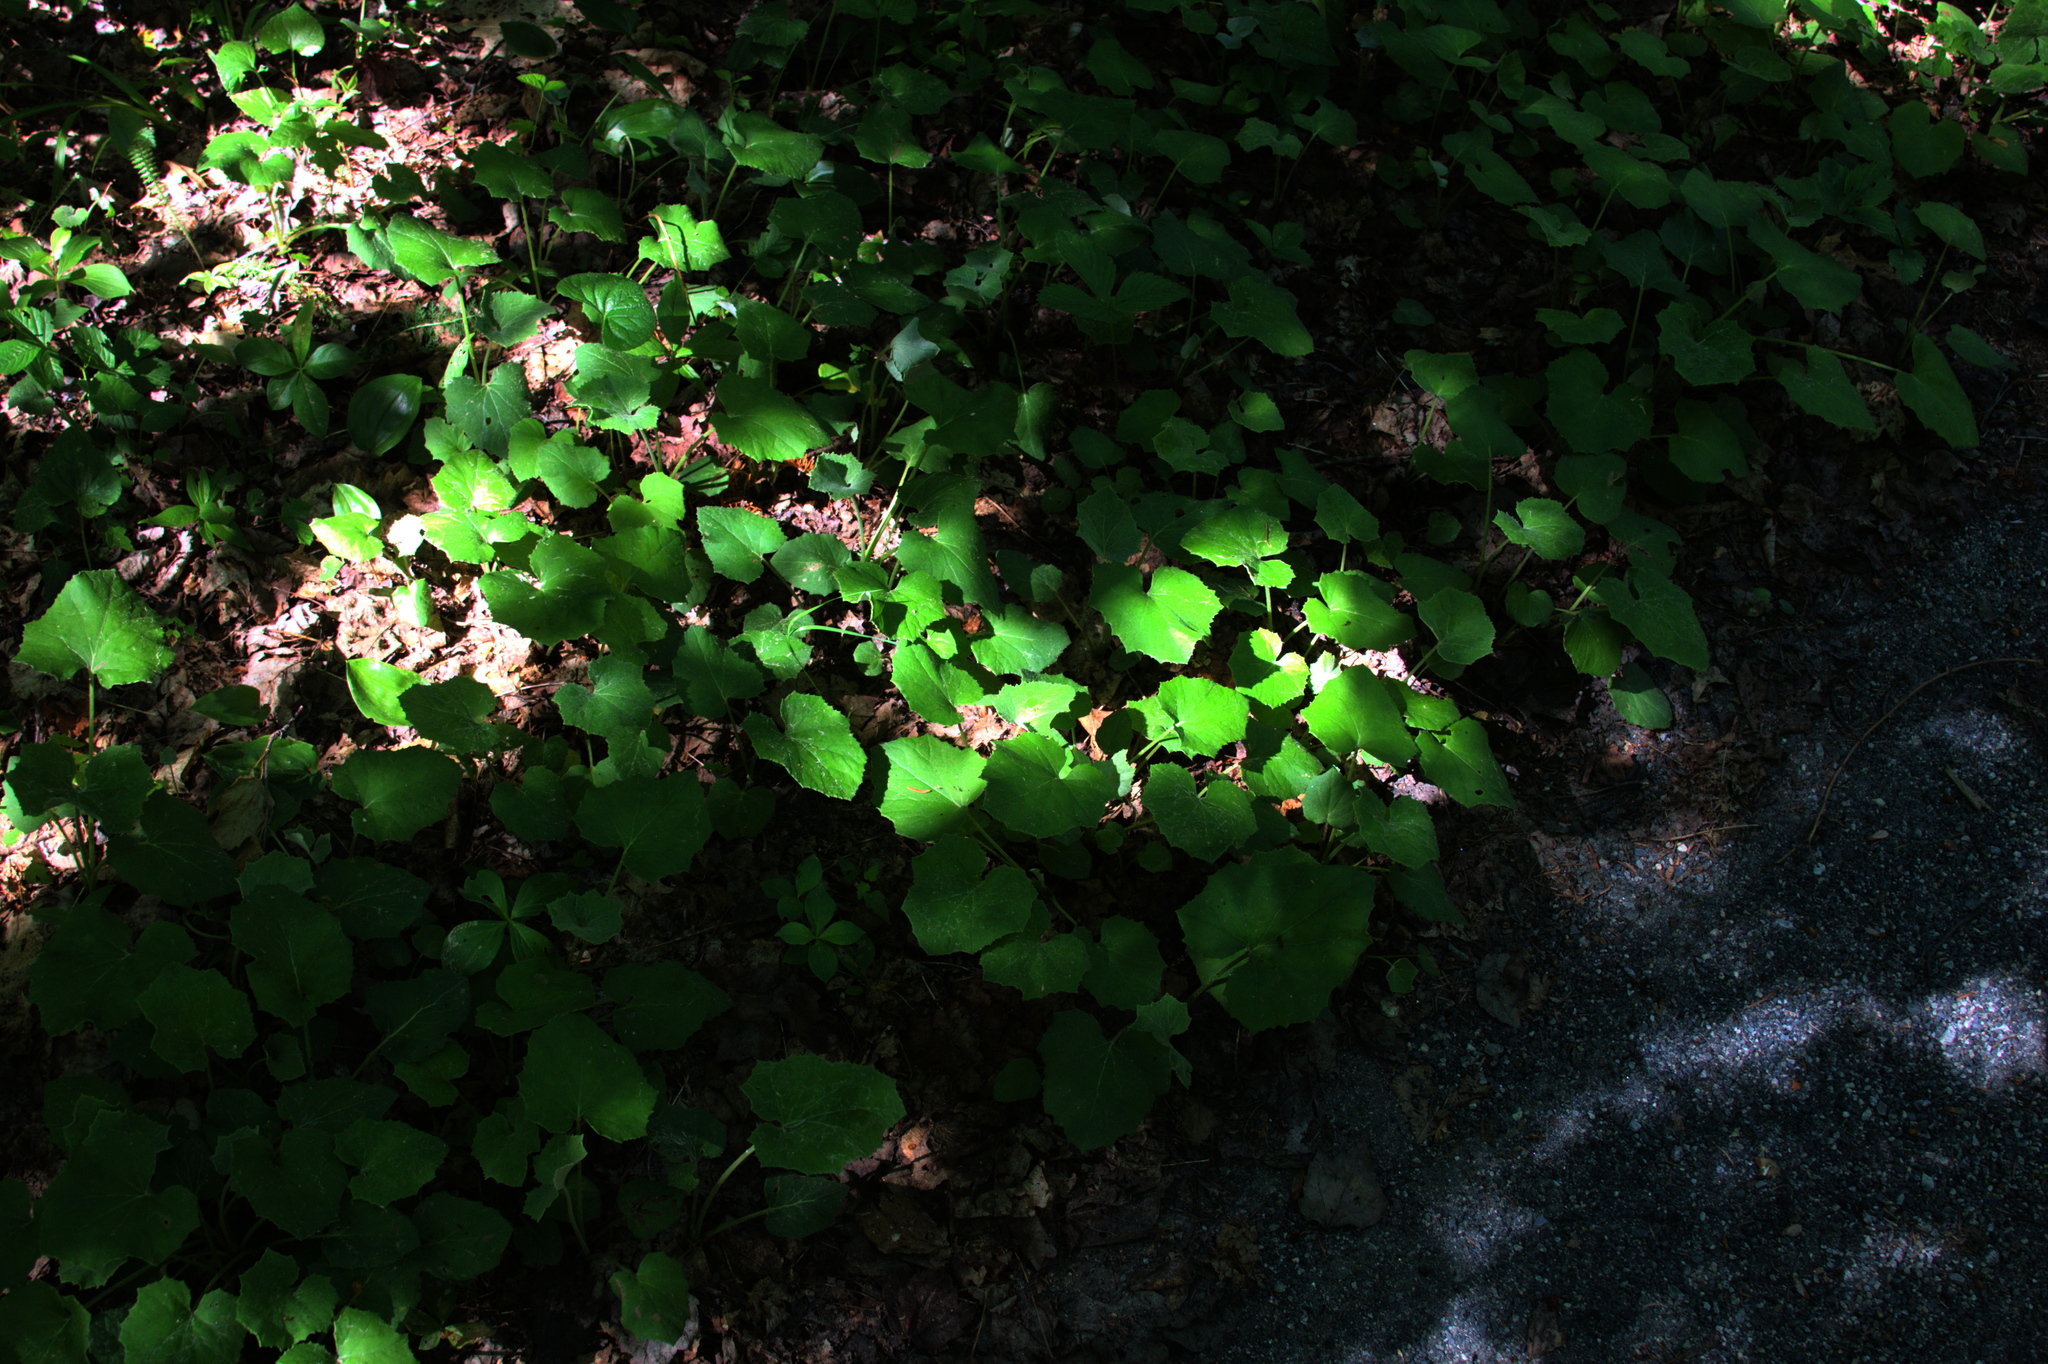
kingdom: Plantae
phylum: Tracheophyta
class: Magnoliopsida
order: Asterales
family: Asteraceae
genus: Tussilago
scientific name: Tussilago farfara
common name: Coltsfoot
